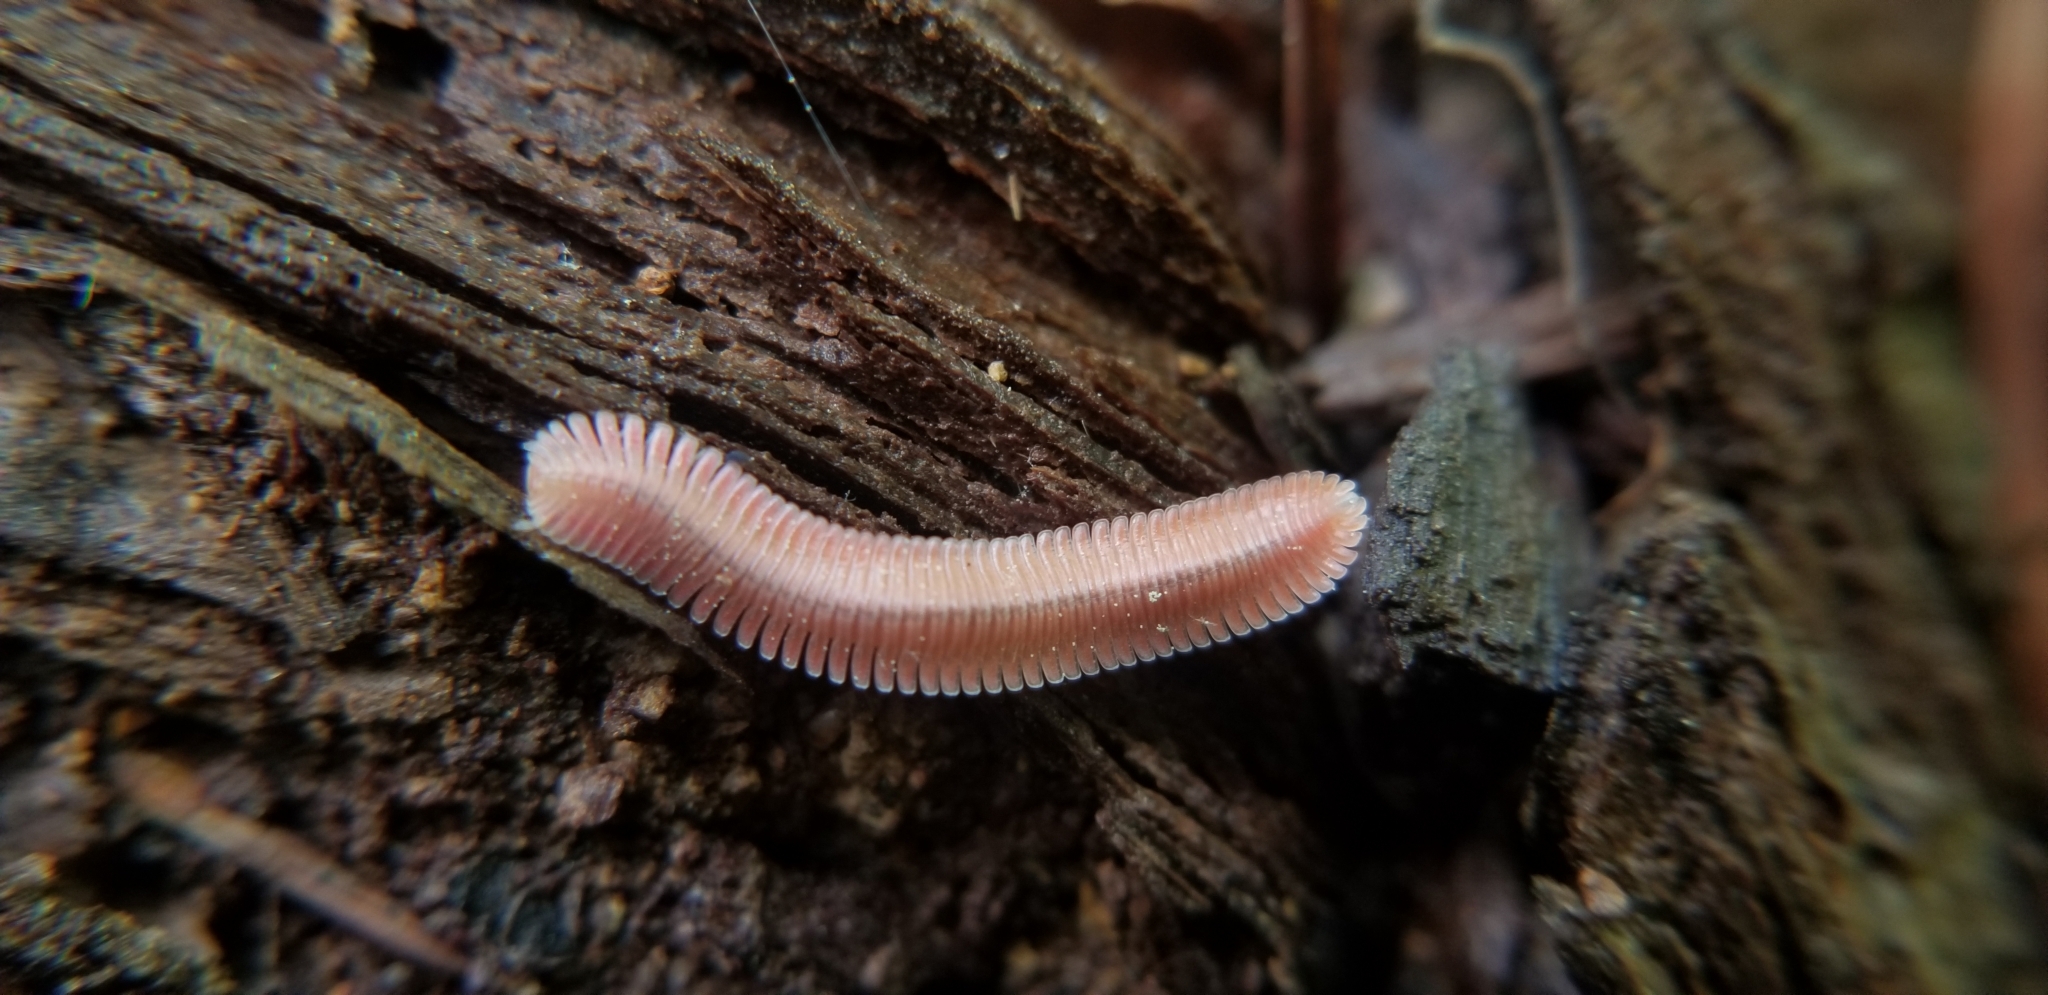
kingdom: Animalia
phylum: Arthropoda
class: Diplopoda
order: Platydesmida
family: Andrognathidae
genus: Brachycybe
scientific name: Brachycybe lecontii
